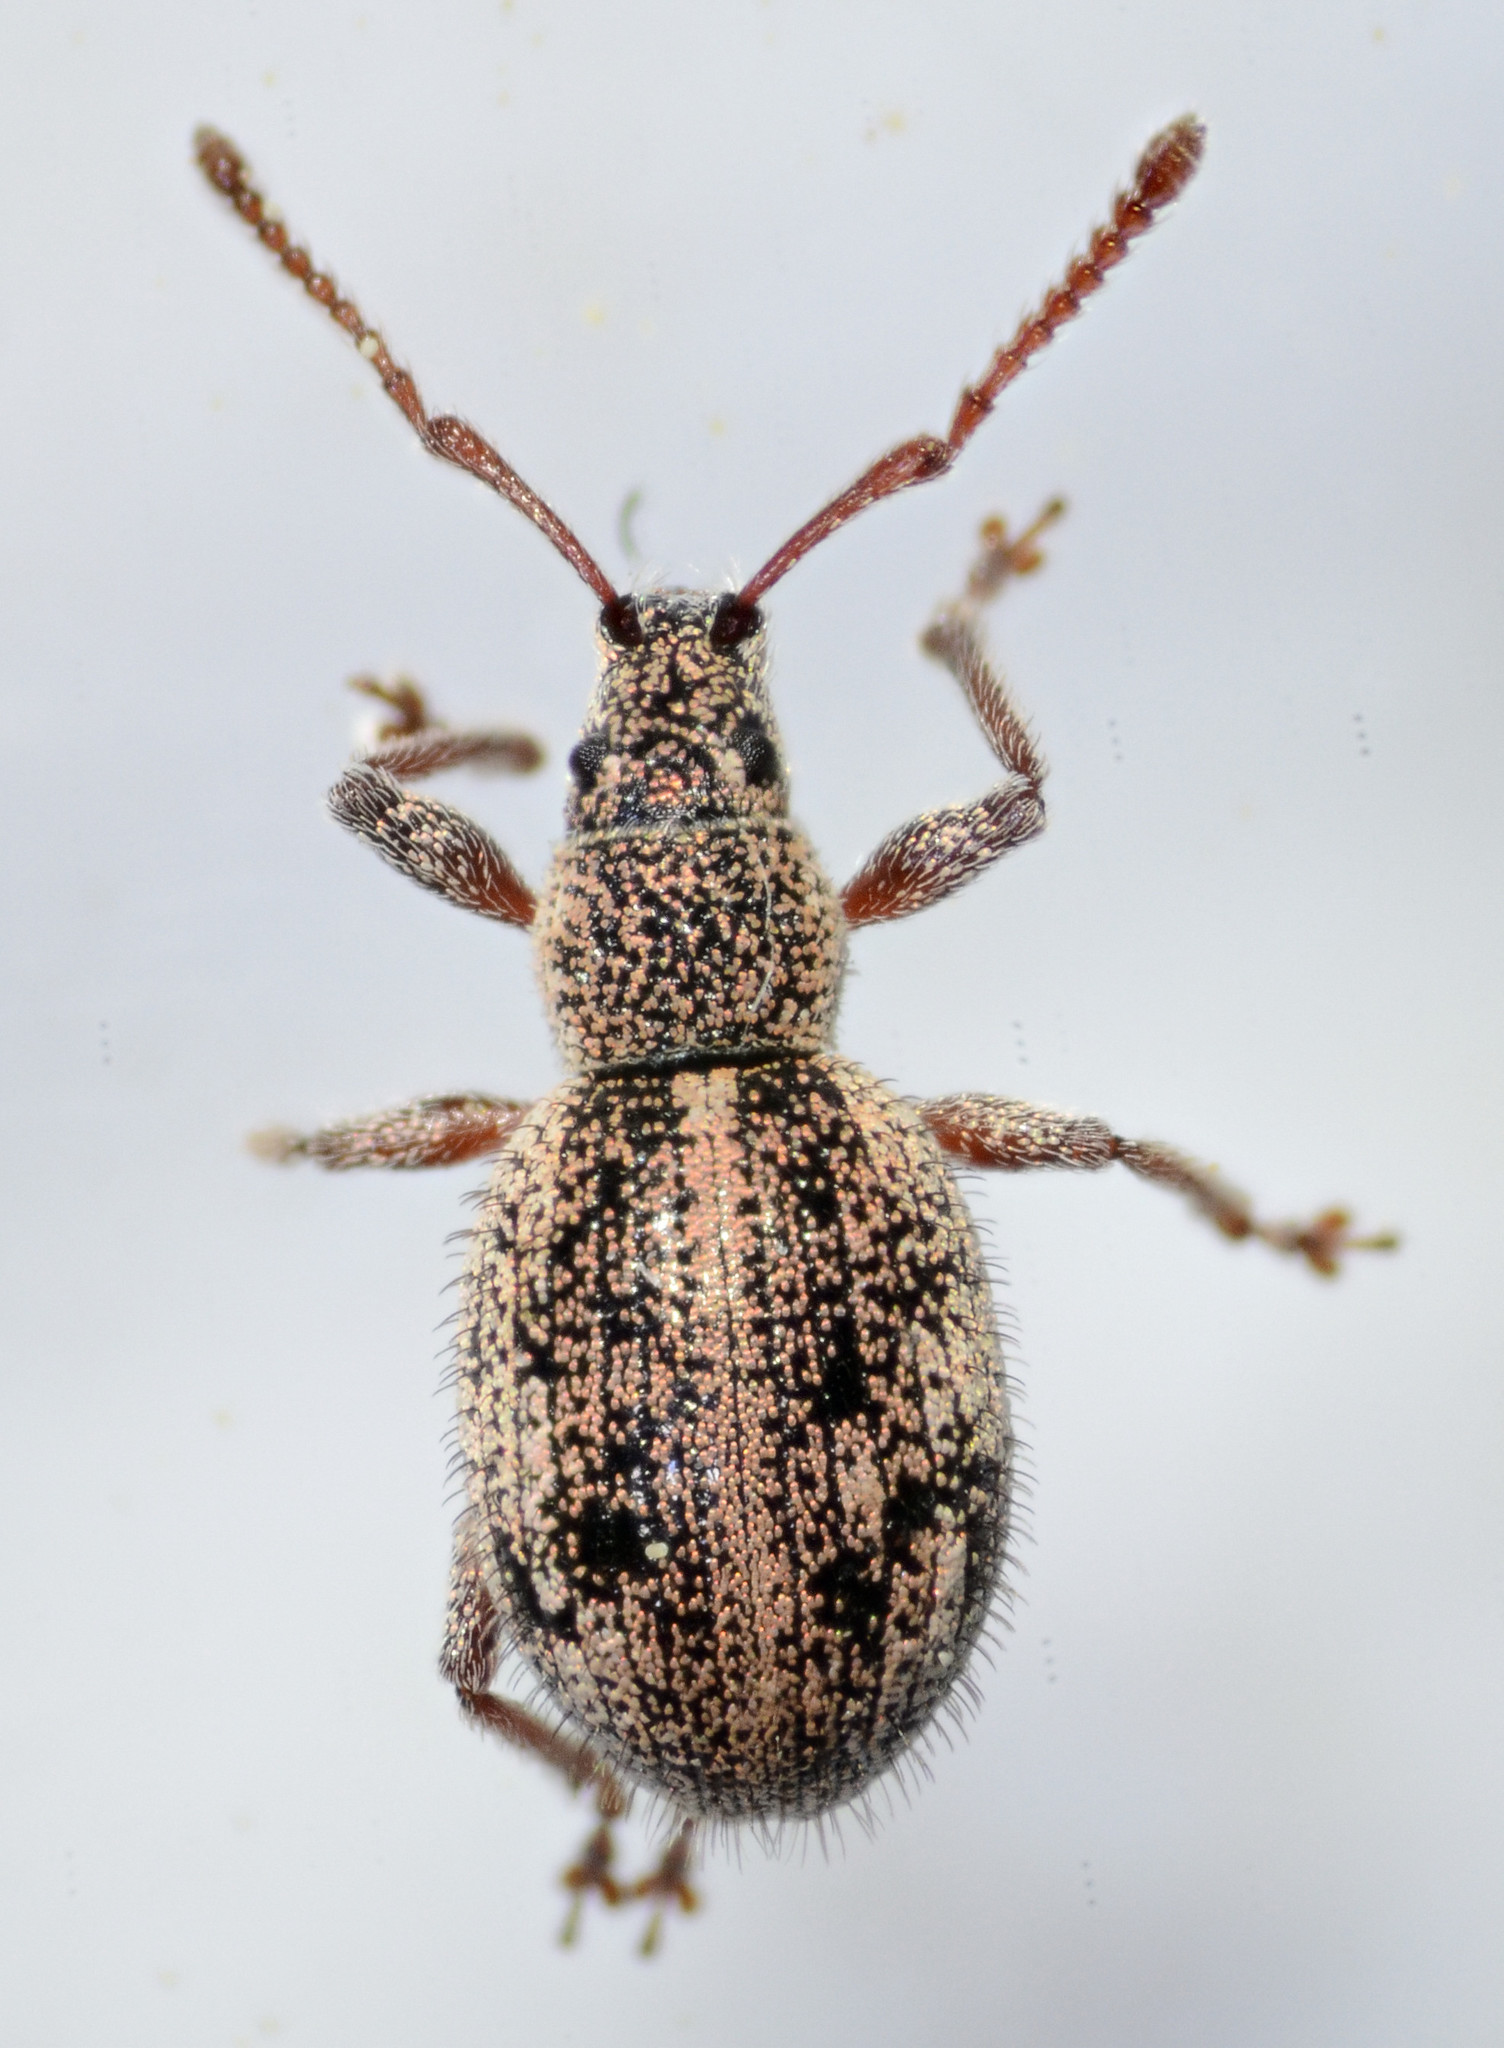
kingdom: Animalia
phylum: Arthropoda
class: Insecta
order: Coleoptera
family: Curculionidae
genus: Thricolepis
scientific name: Thricolepis inornata
